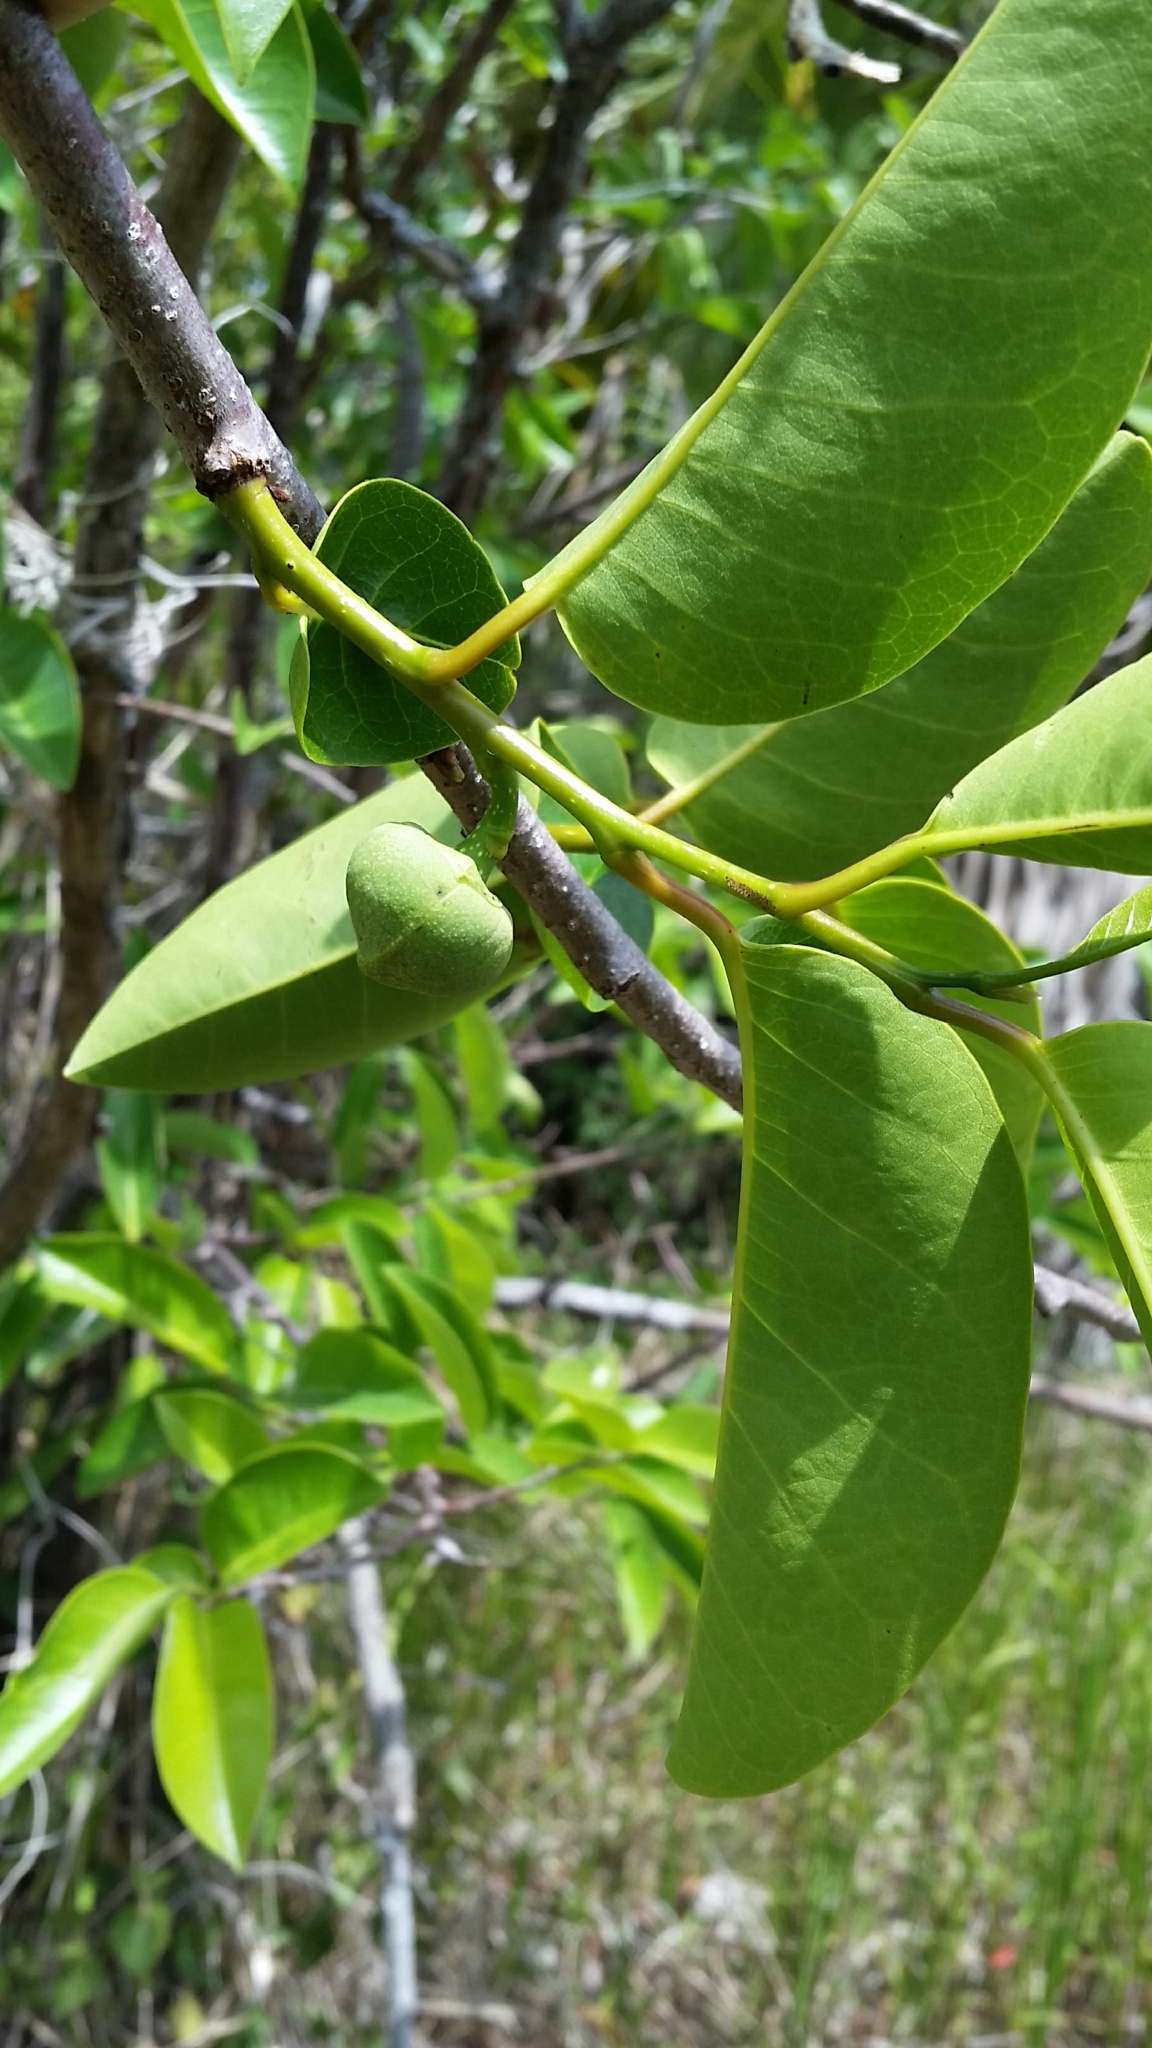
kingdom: Plantae
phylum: Tracheophyta
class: Magnoliopsida
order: Magnoliales
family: Annonaceae
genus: Annona
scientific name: Annona glabra
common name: Monkey apple
